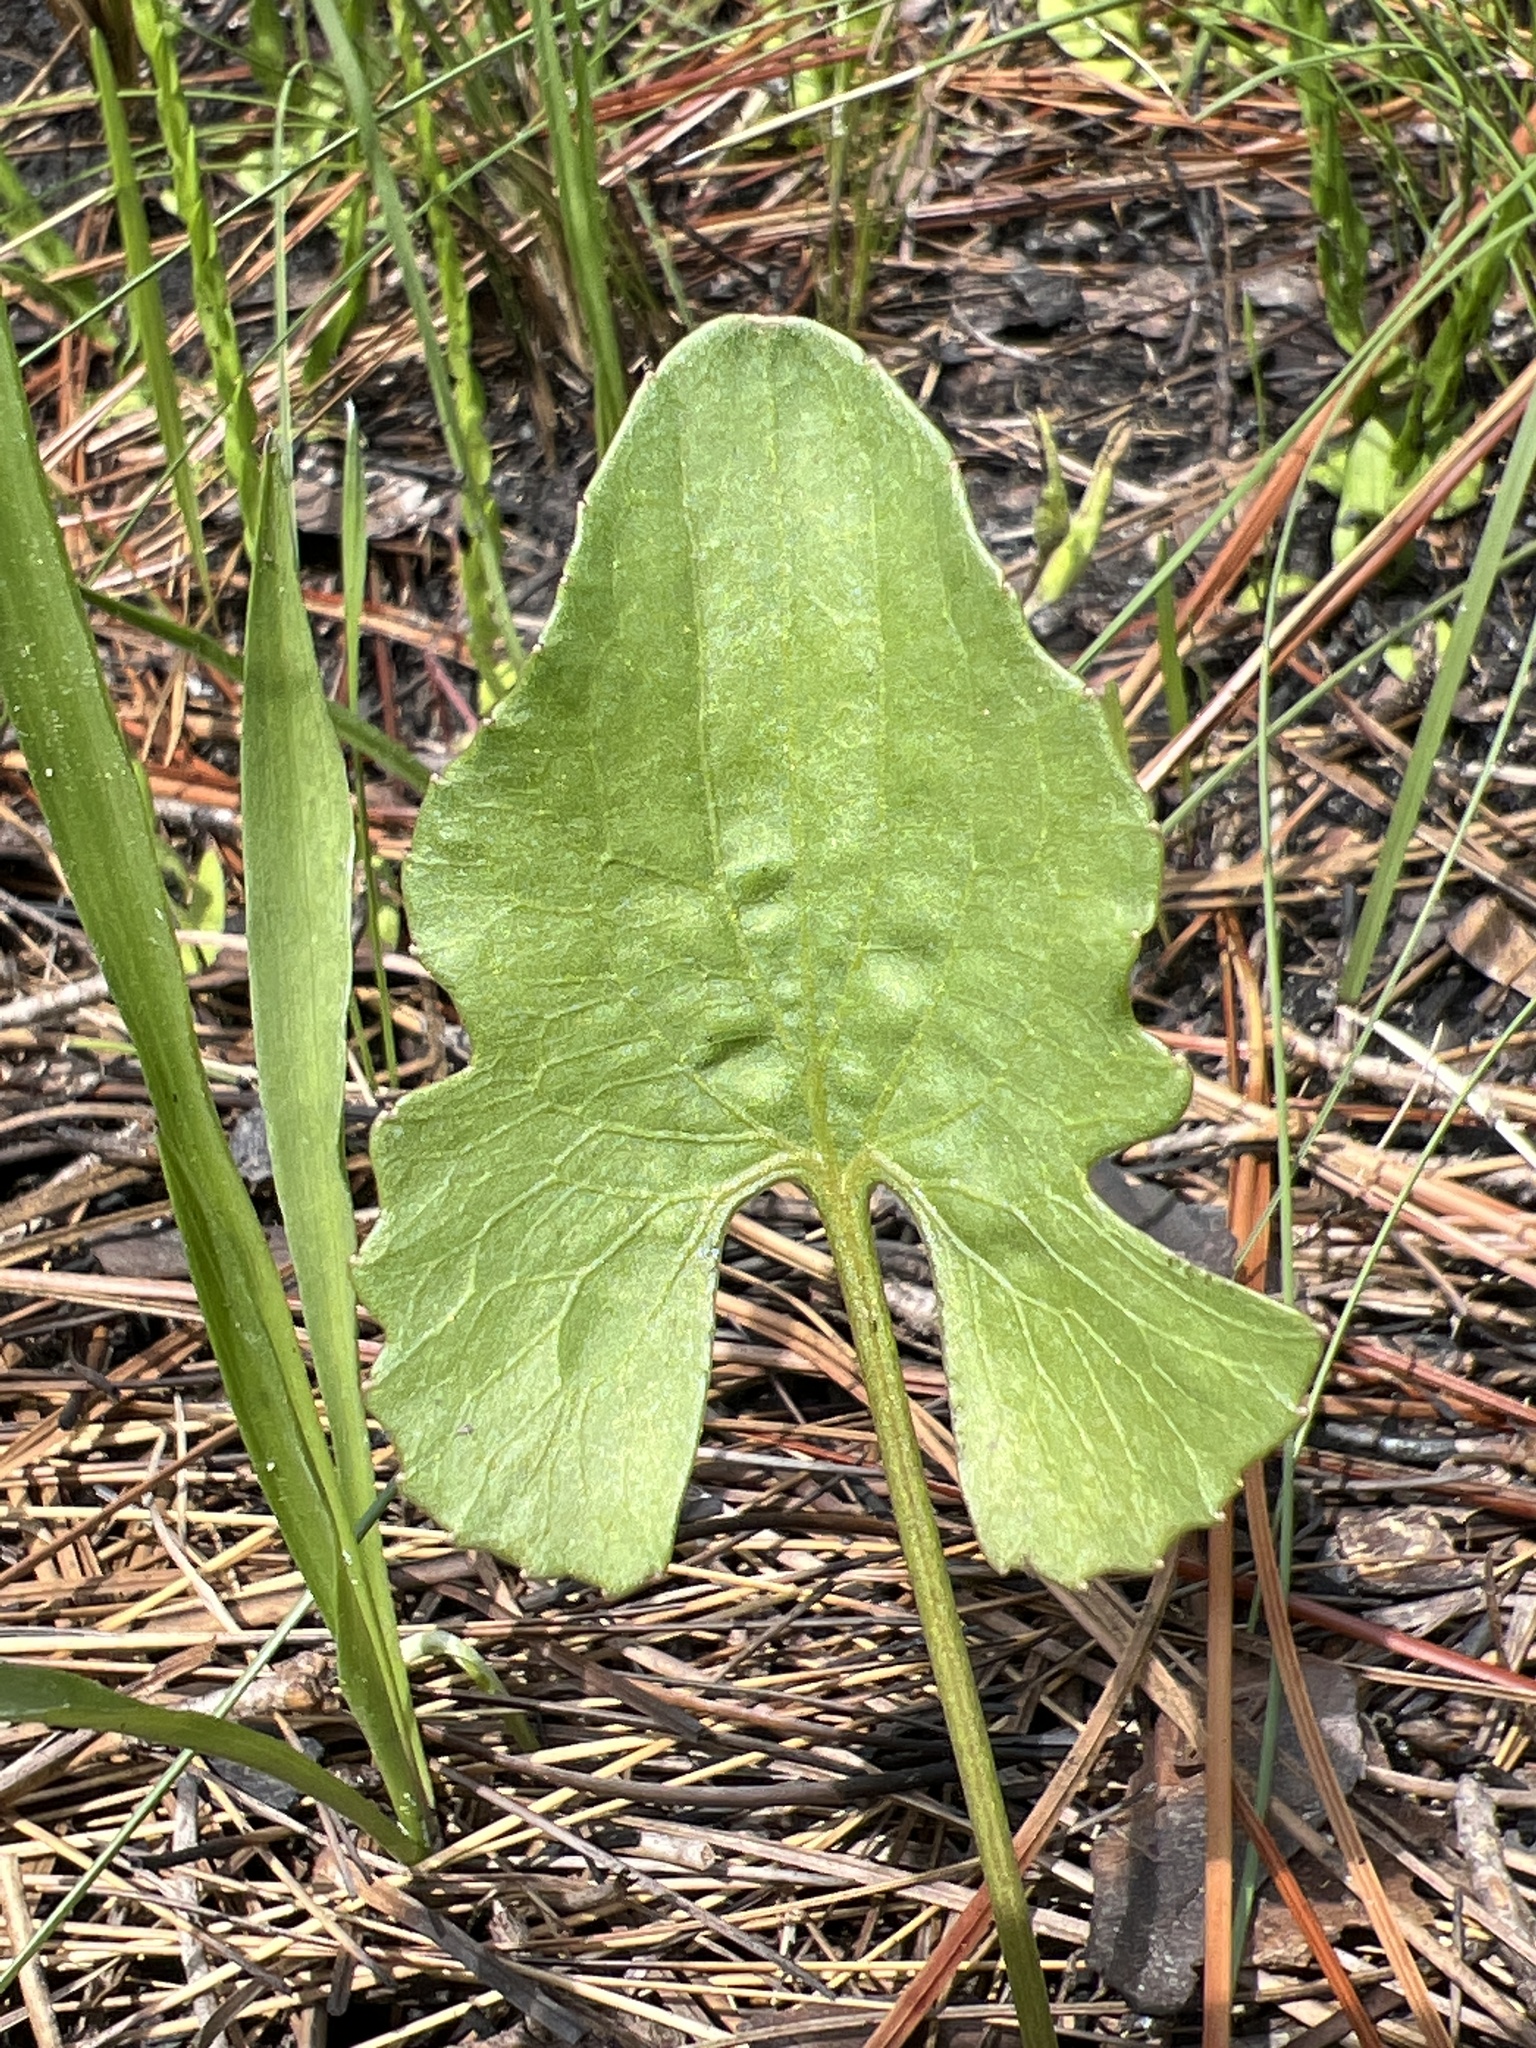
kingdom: Plantae
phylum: Tracheophyta
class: Magnoliopsida
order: Malpighiales
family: Violaceae
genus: Viola
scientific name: Viola septemloba
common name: Southern coast violet
